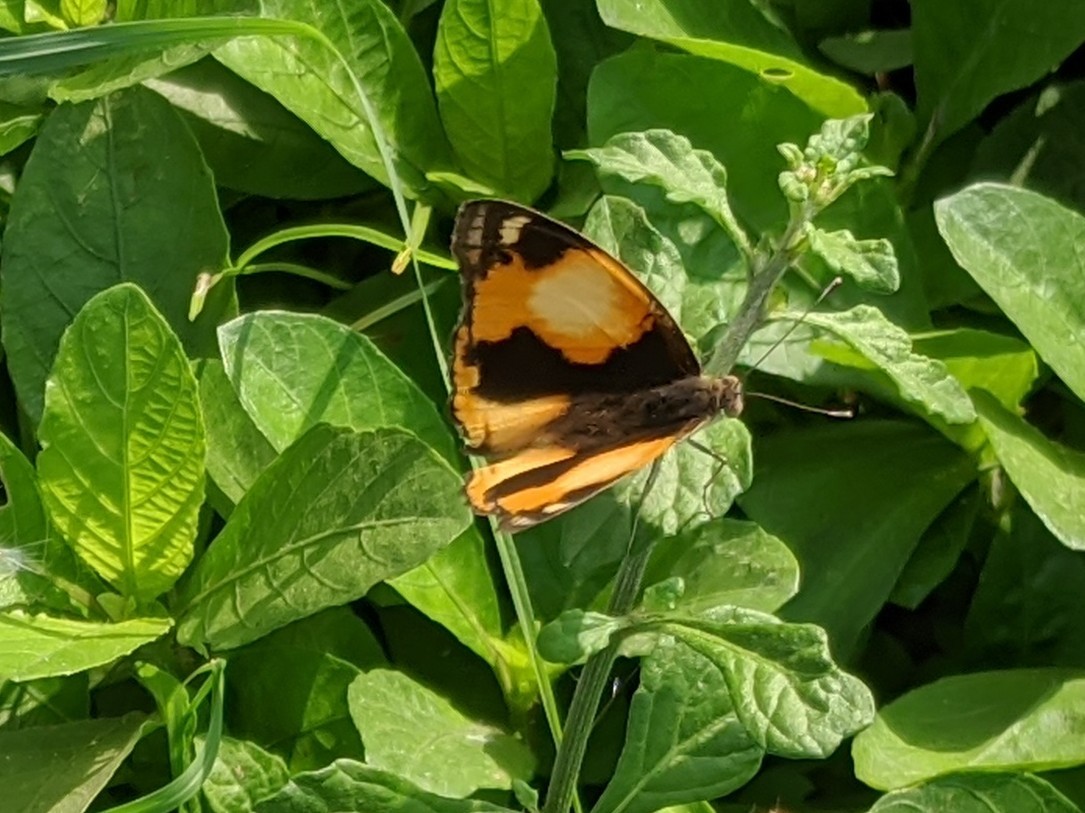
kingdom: Animalia
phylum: Arthropoda
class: Insecta
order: Lepidoptera
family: Nymphalidae
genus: Junonia
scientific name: Junonia hierta
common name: Yellow pansy
